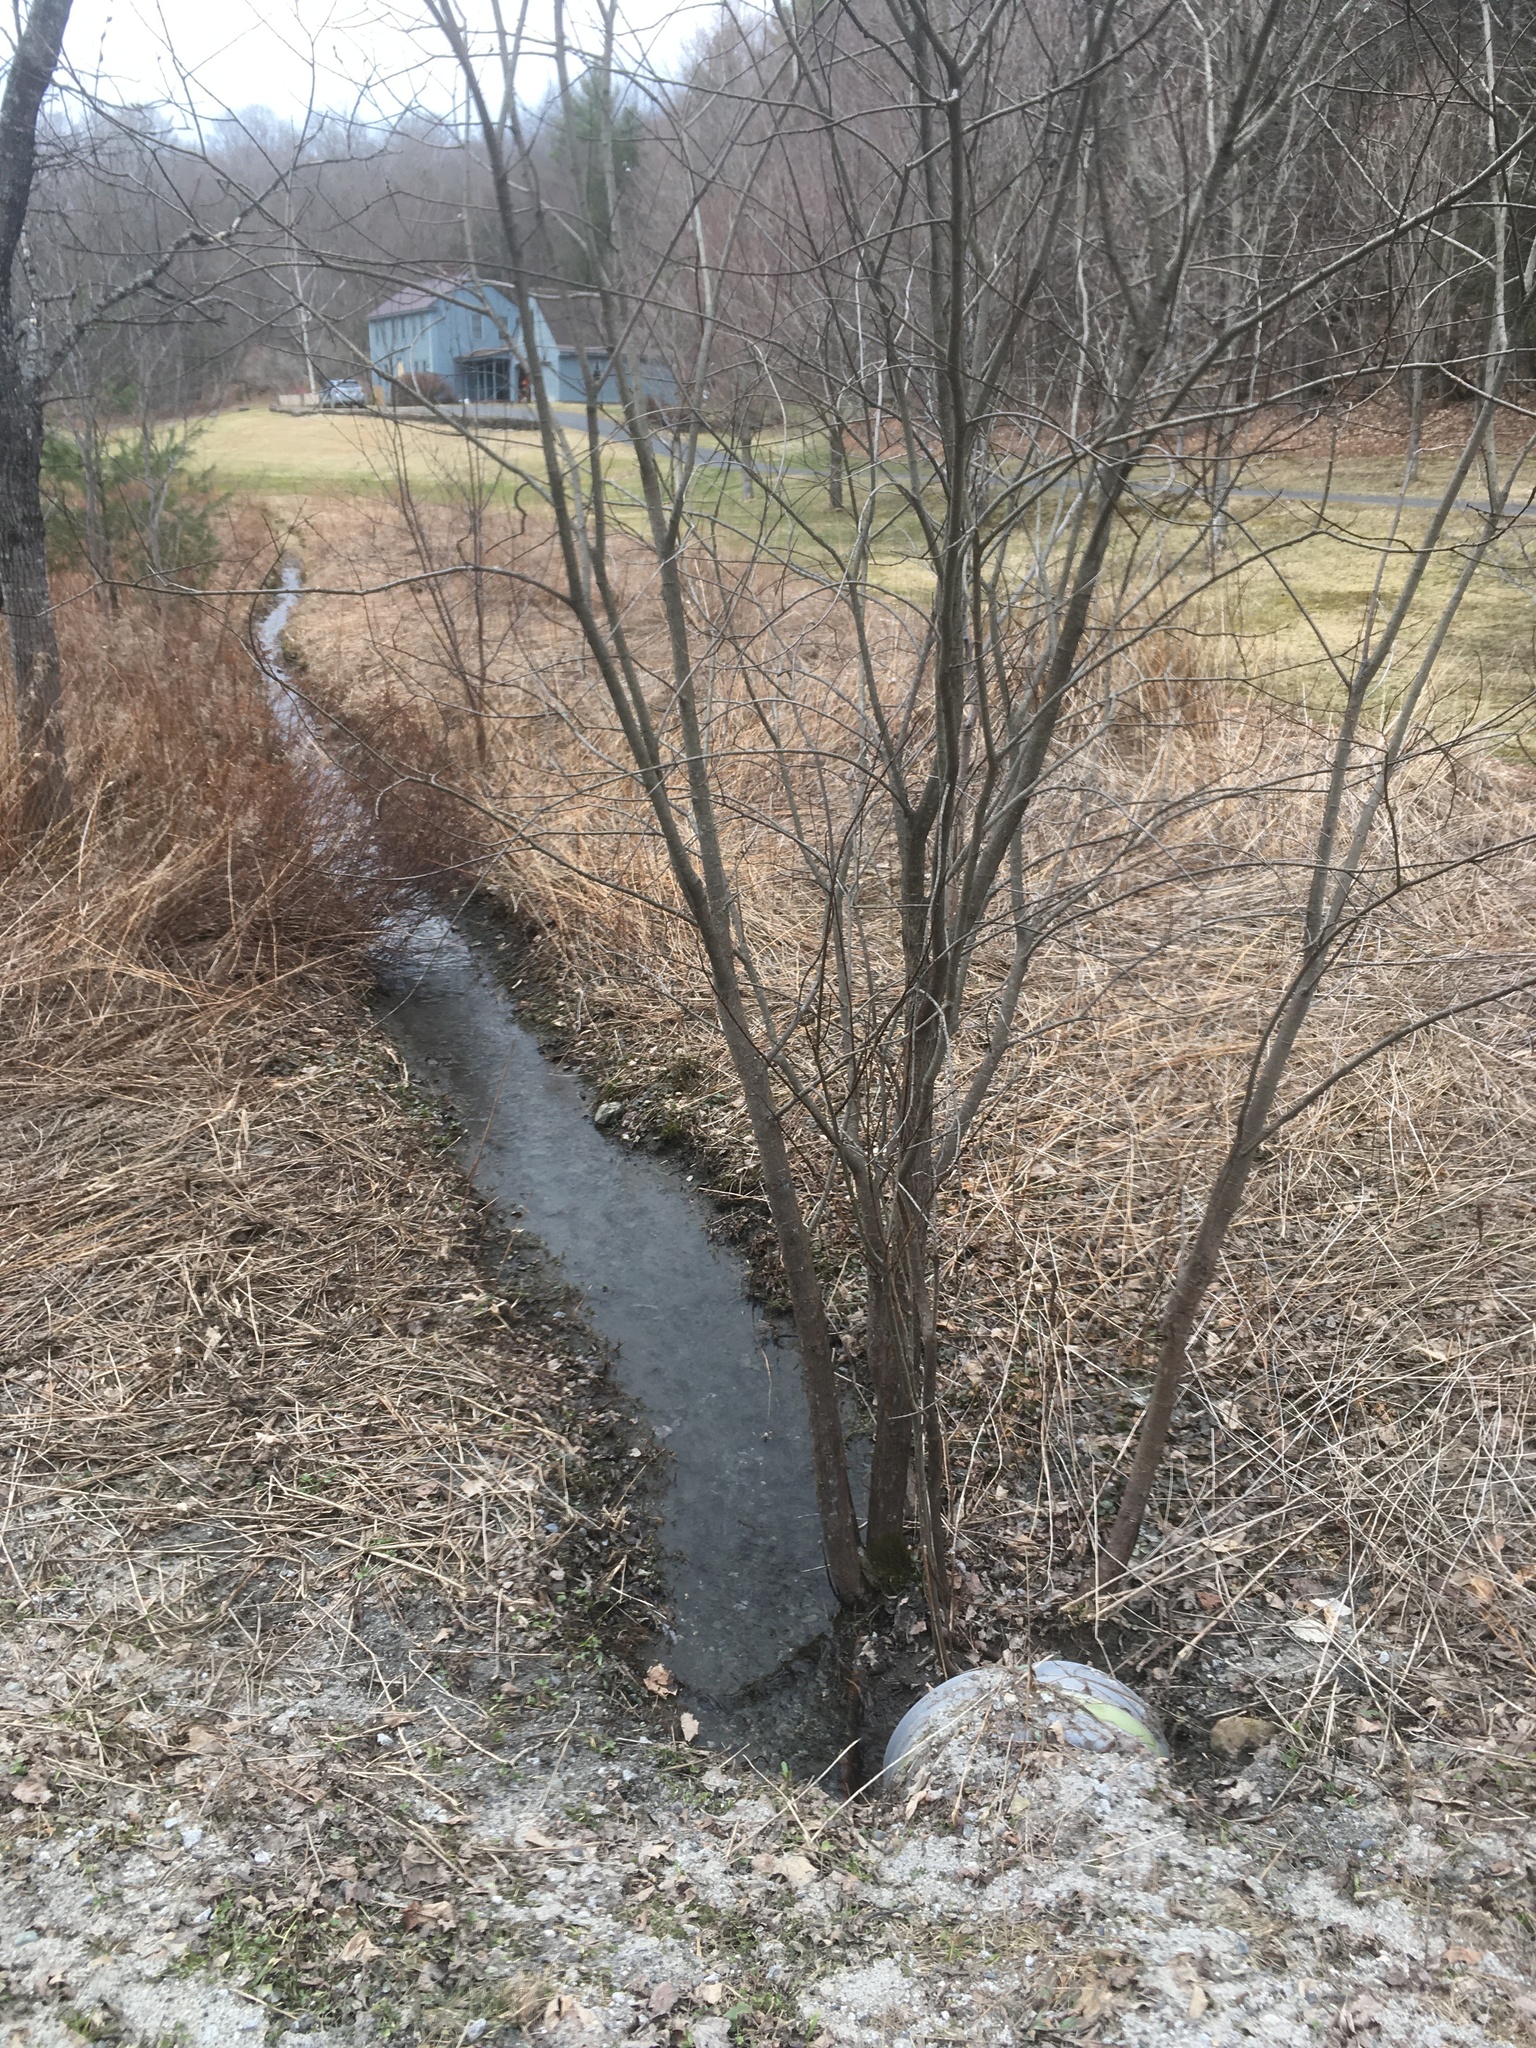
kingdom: Plantae
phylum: Tracheophyta
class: Magnoliopsida
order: Malpighiales
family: Salicaceae
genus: Salix
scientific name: Salix discolor
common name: Glaucous willow
